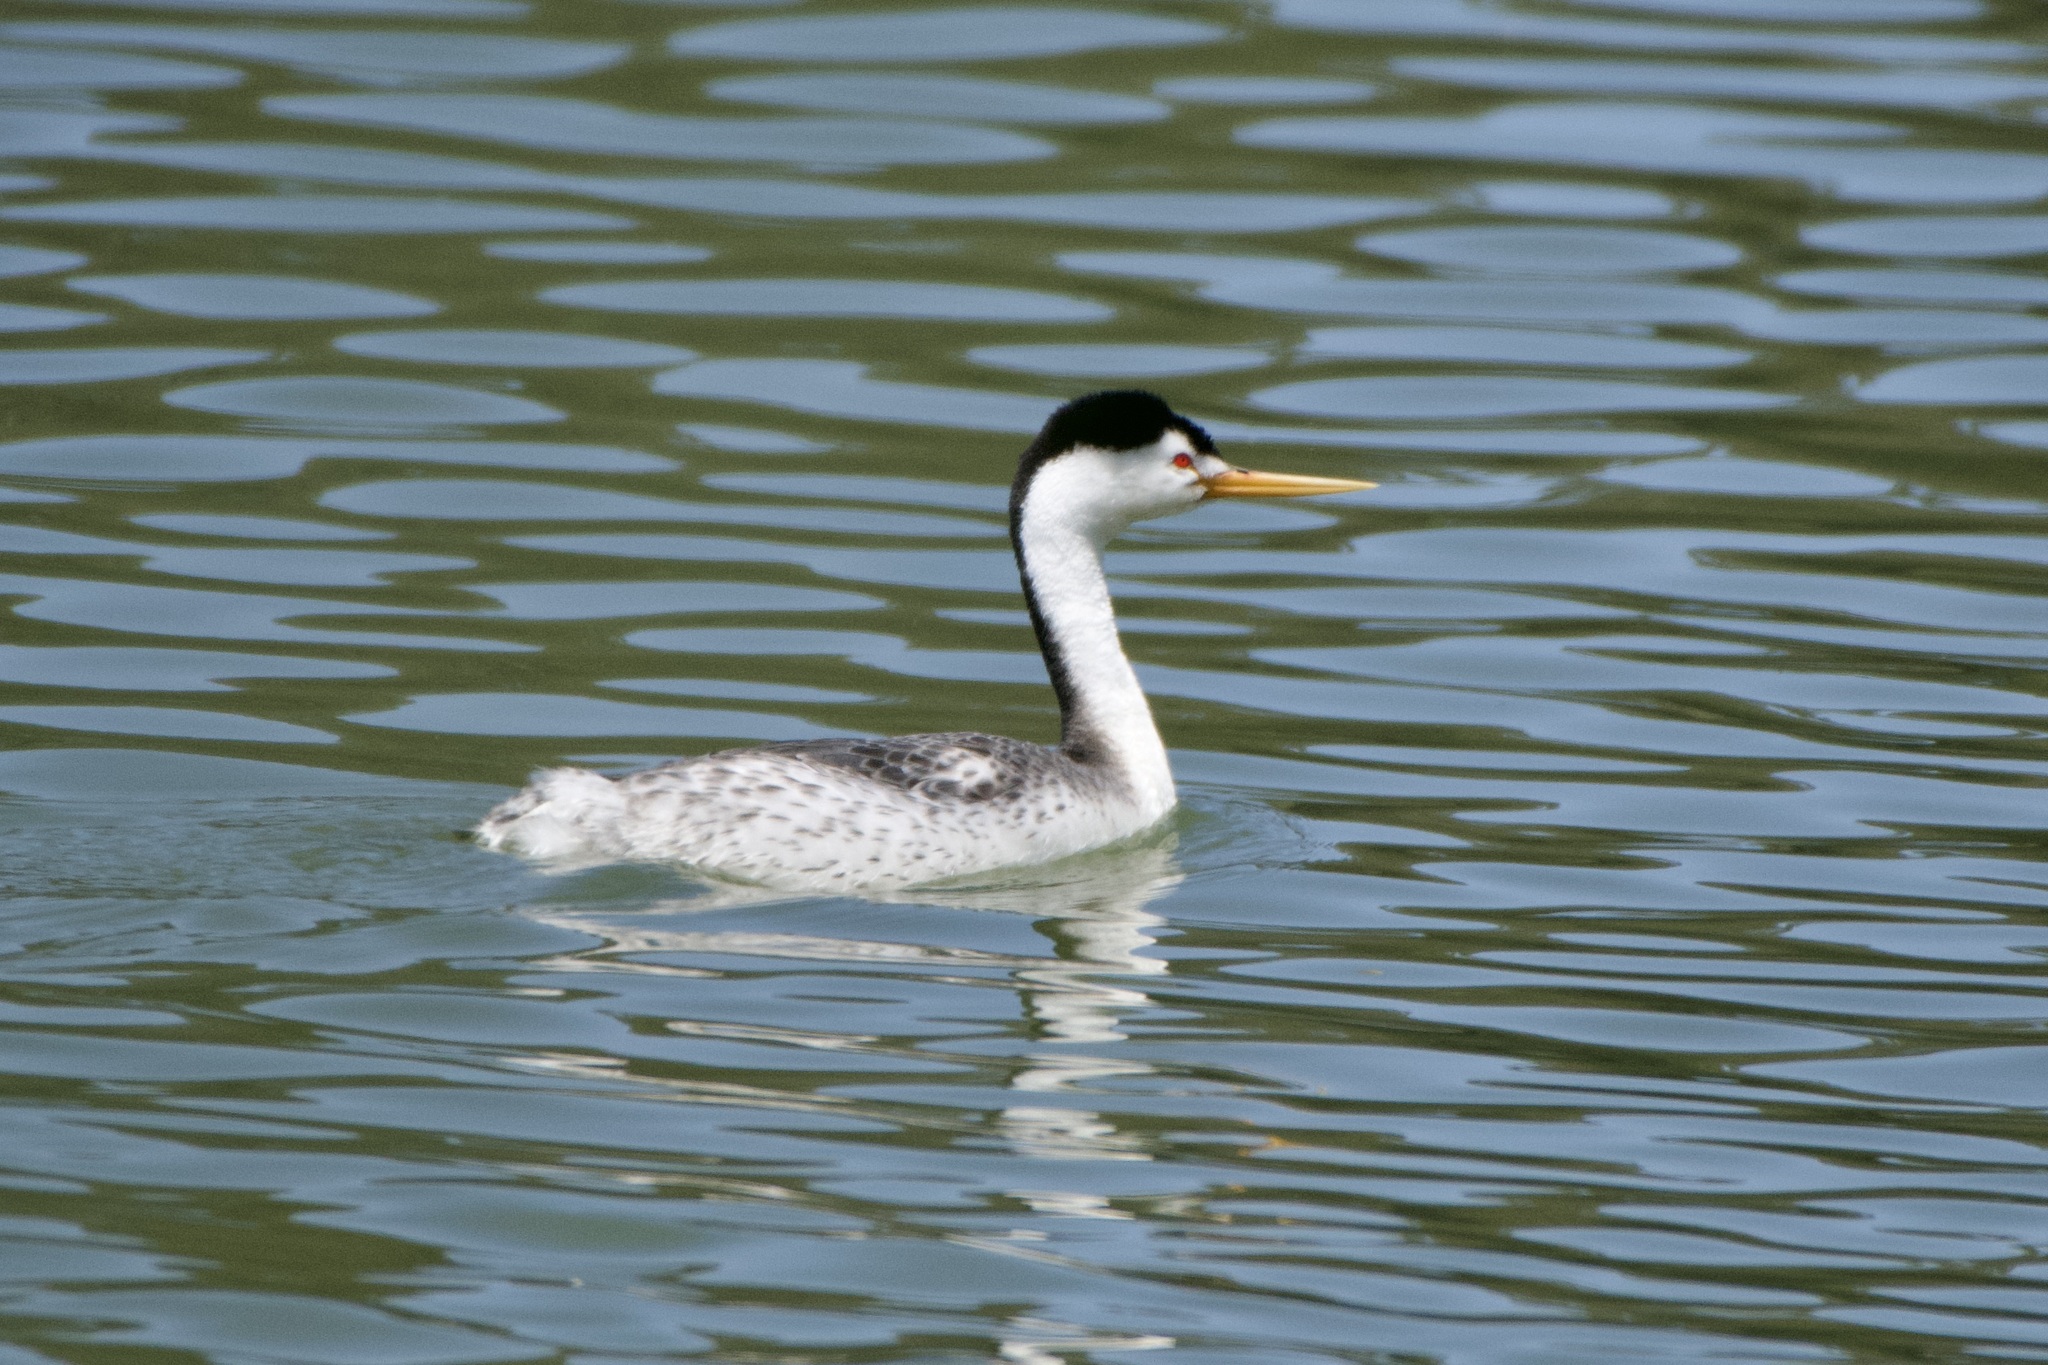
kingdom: Animalia
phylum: Chordata
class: Aves
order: Podicipediformes
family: Podicipedidae
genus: Aechmophorus
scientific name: Aechmophorus clarkii
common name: Clark's grebe
